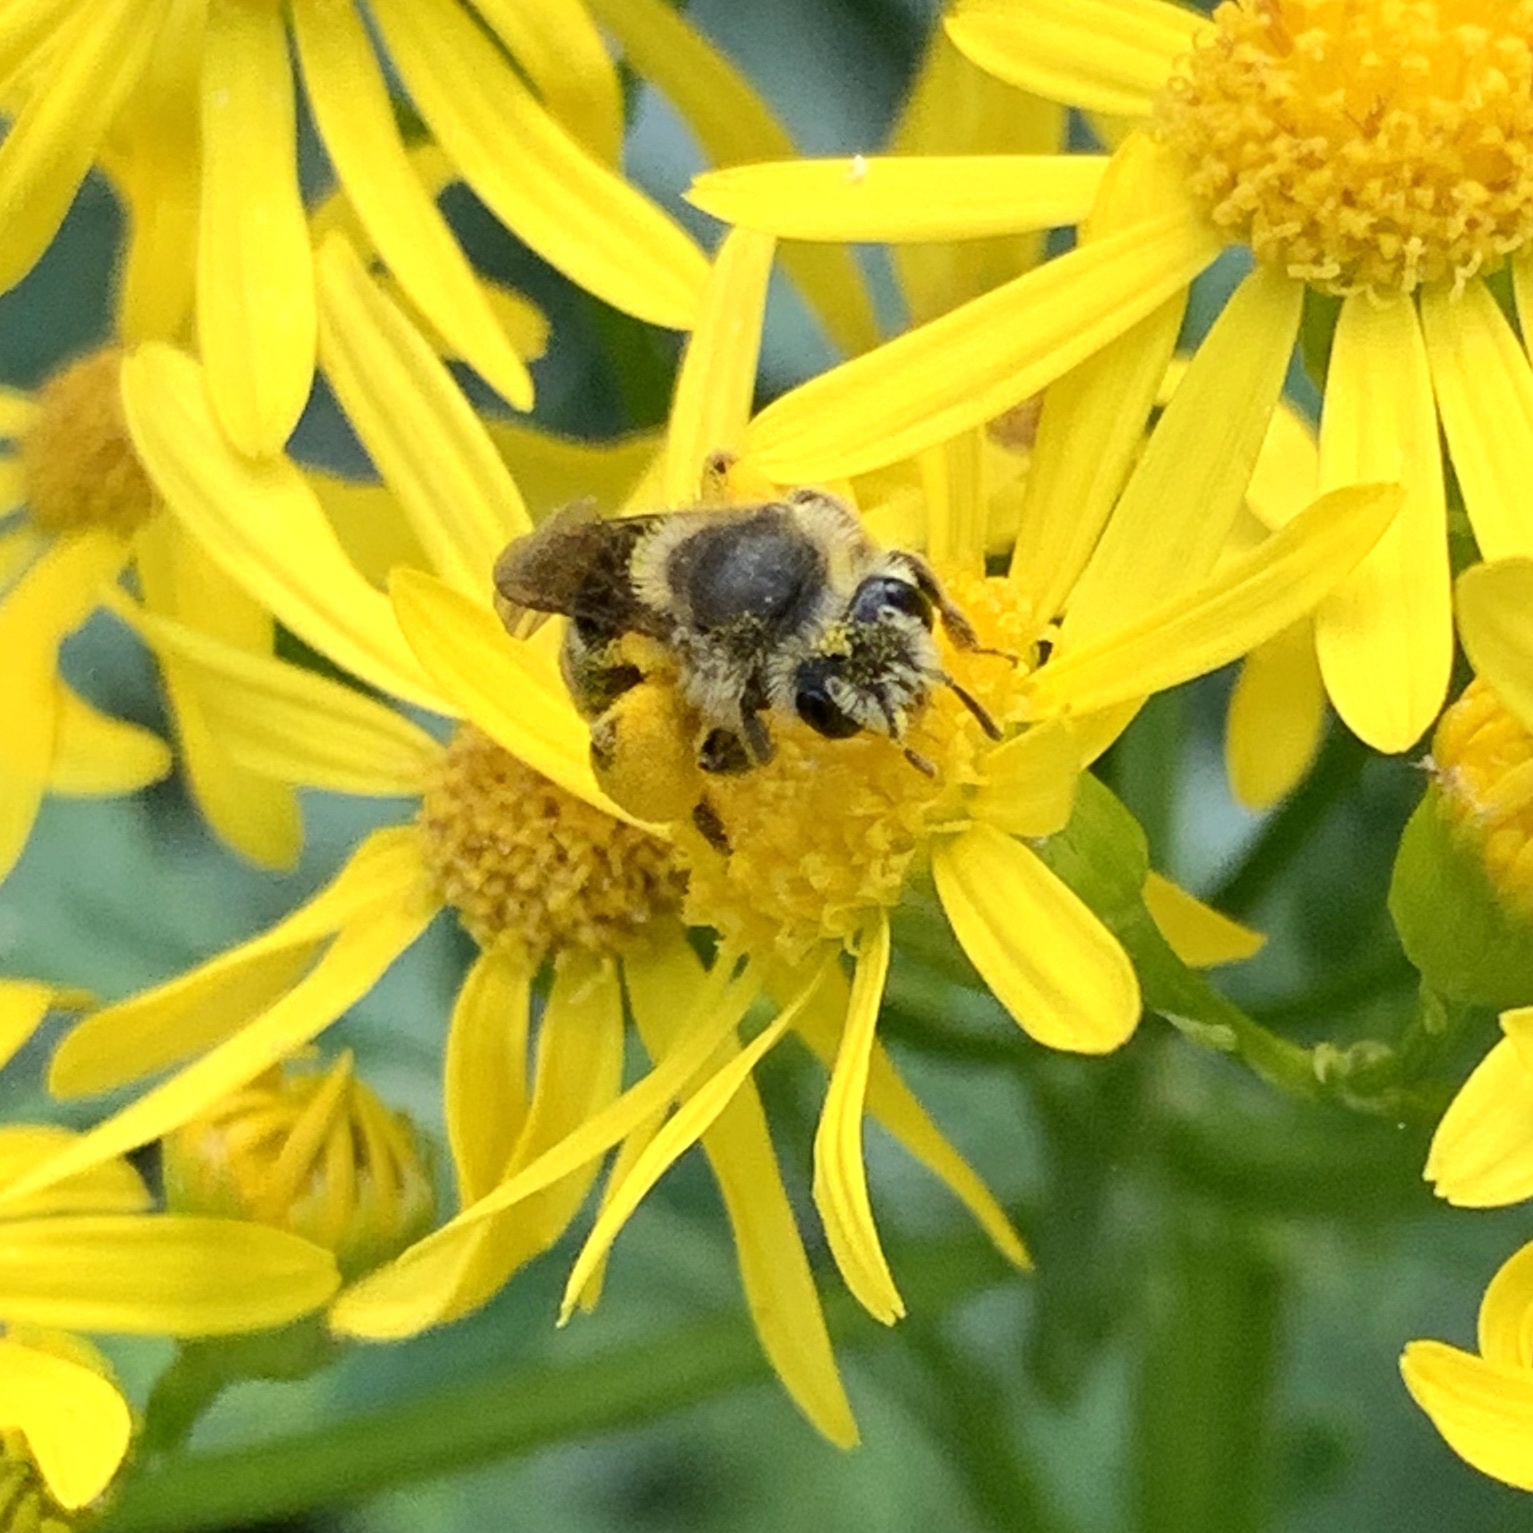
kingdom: Animalia
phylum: Arthropoda
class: Insecta
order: Hymenoptera
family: Andrenidae
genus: Andrena
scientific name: Andrena gardineri
